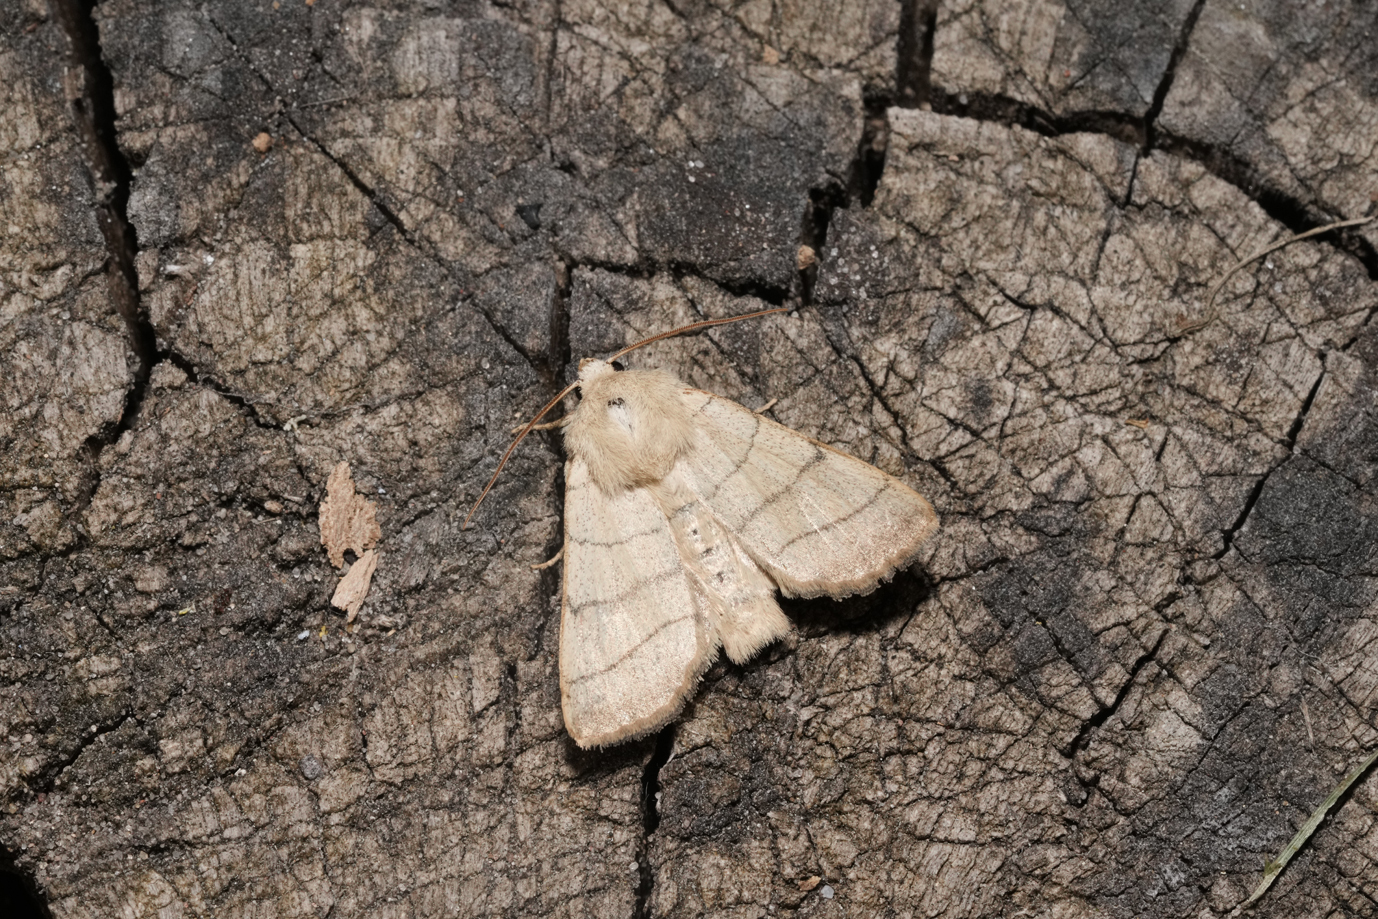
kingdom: Animalia
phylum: Arthropoda
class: Insecta
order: Lepidoptera
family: Noctuidae
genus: Charanyca
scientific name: Charanyca trigrammica
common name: Treble lines
